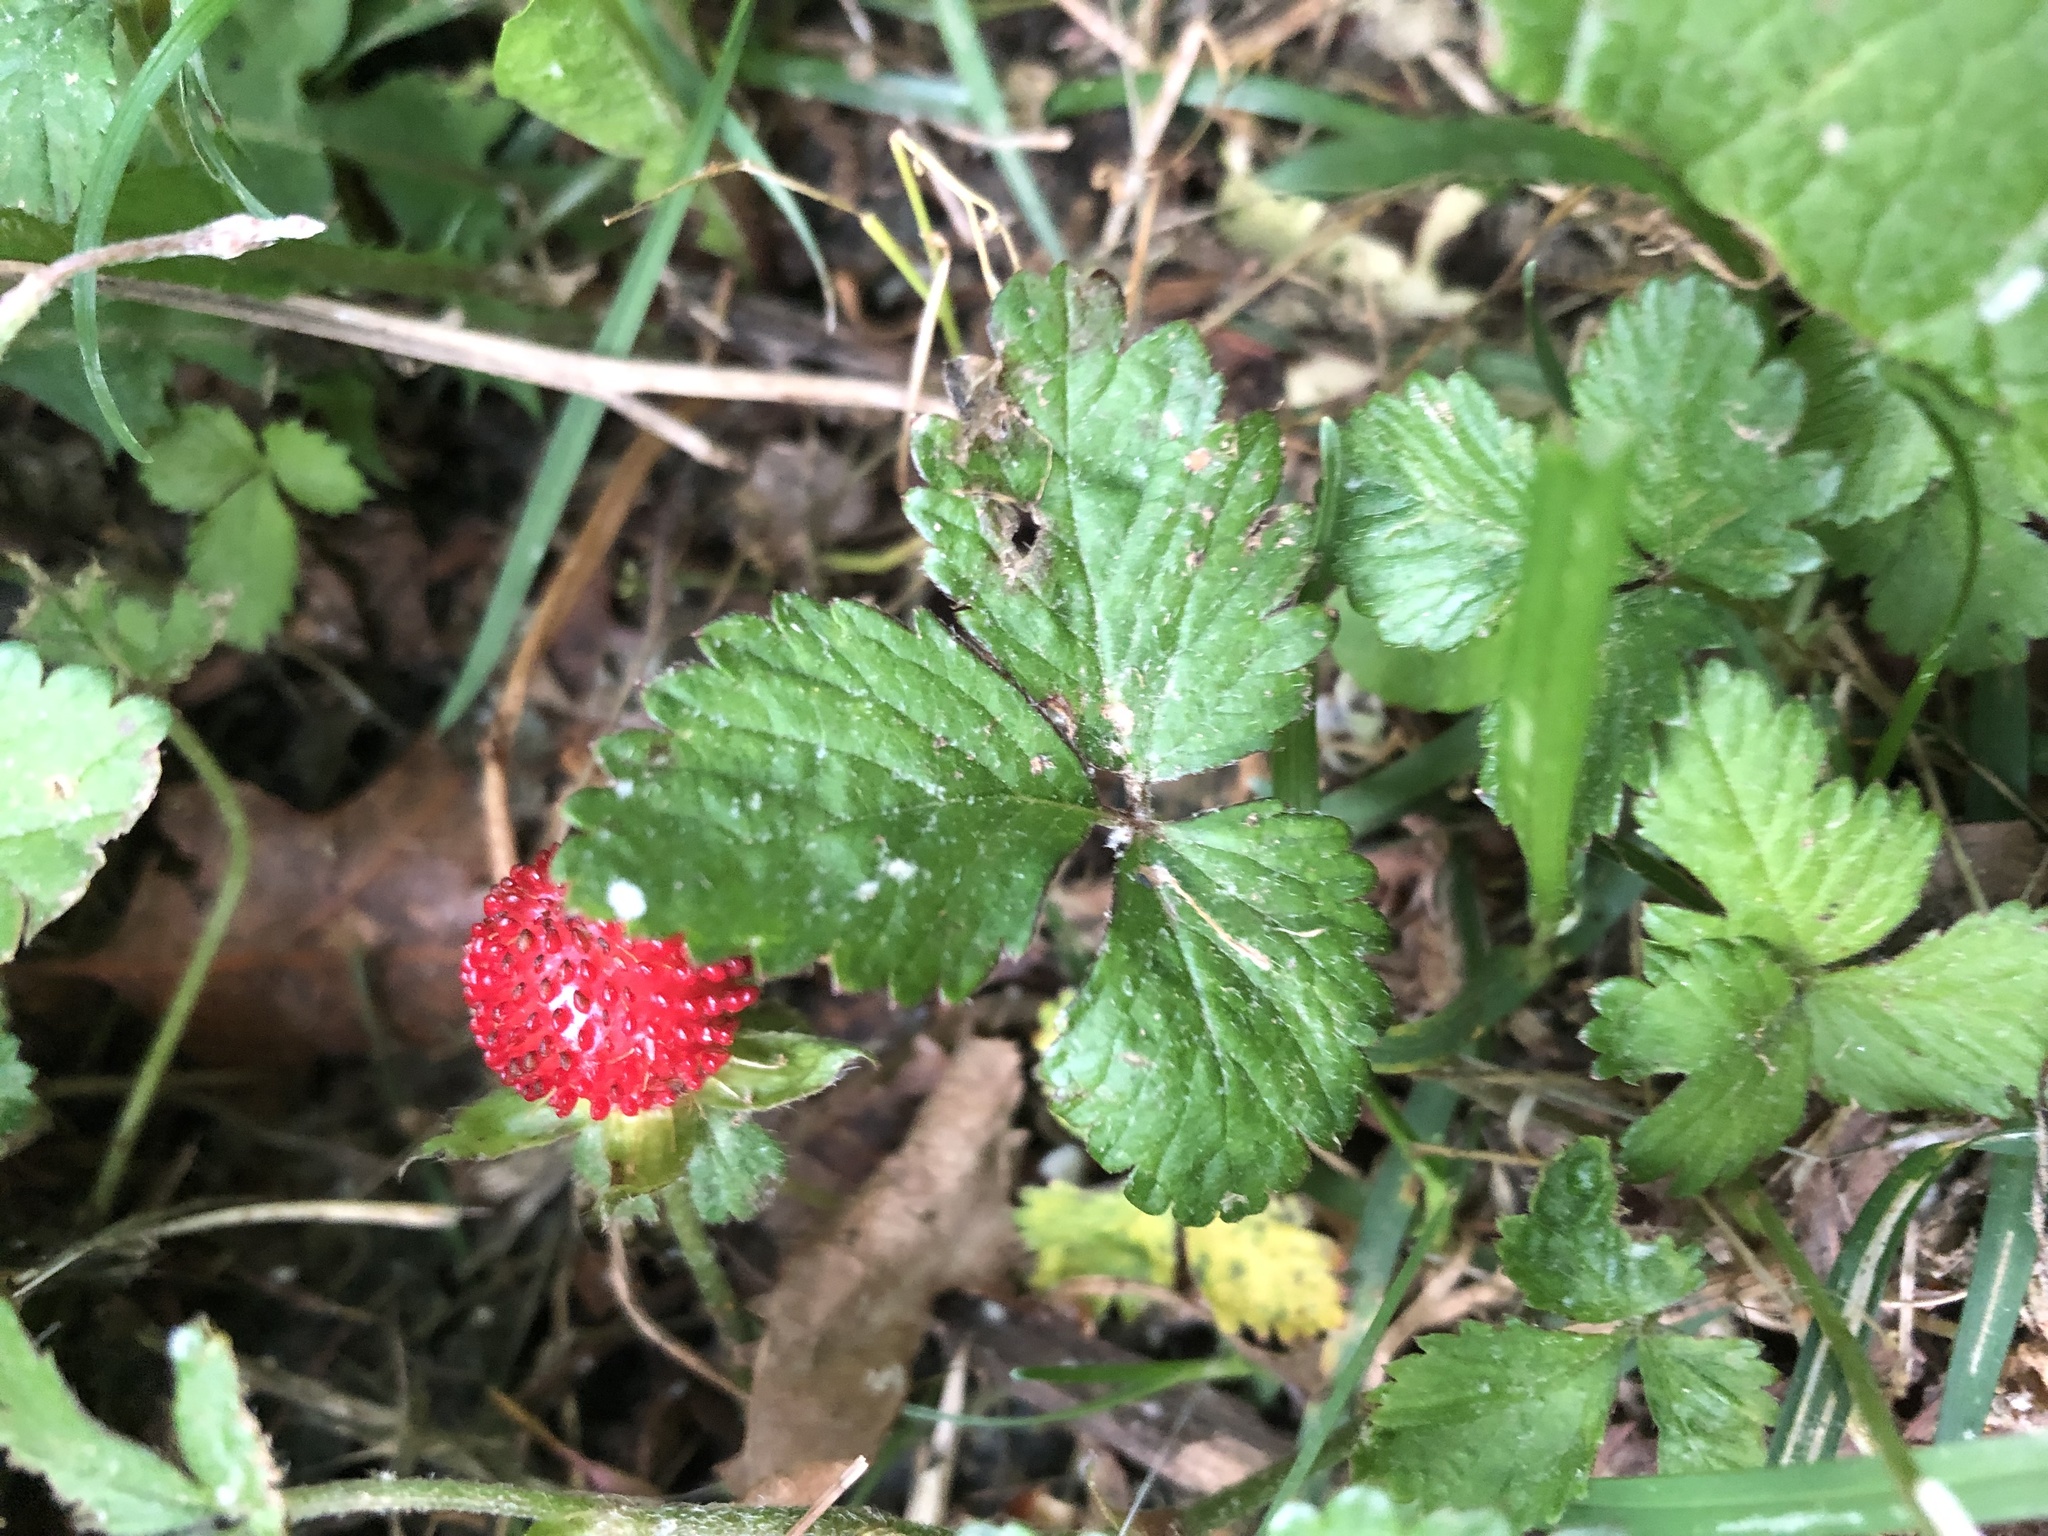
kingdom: Plantae
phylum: Tracheophyta
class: Magnoliopsida
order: Rosales
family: Rosaceae
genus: Potentilla
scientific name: Potentilla indica
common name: Yellow-flowered strawberry
